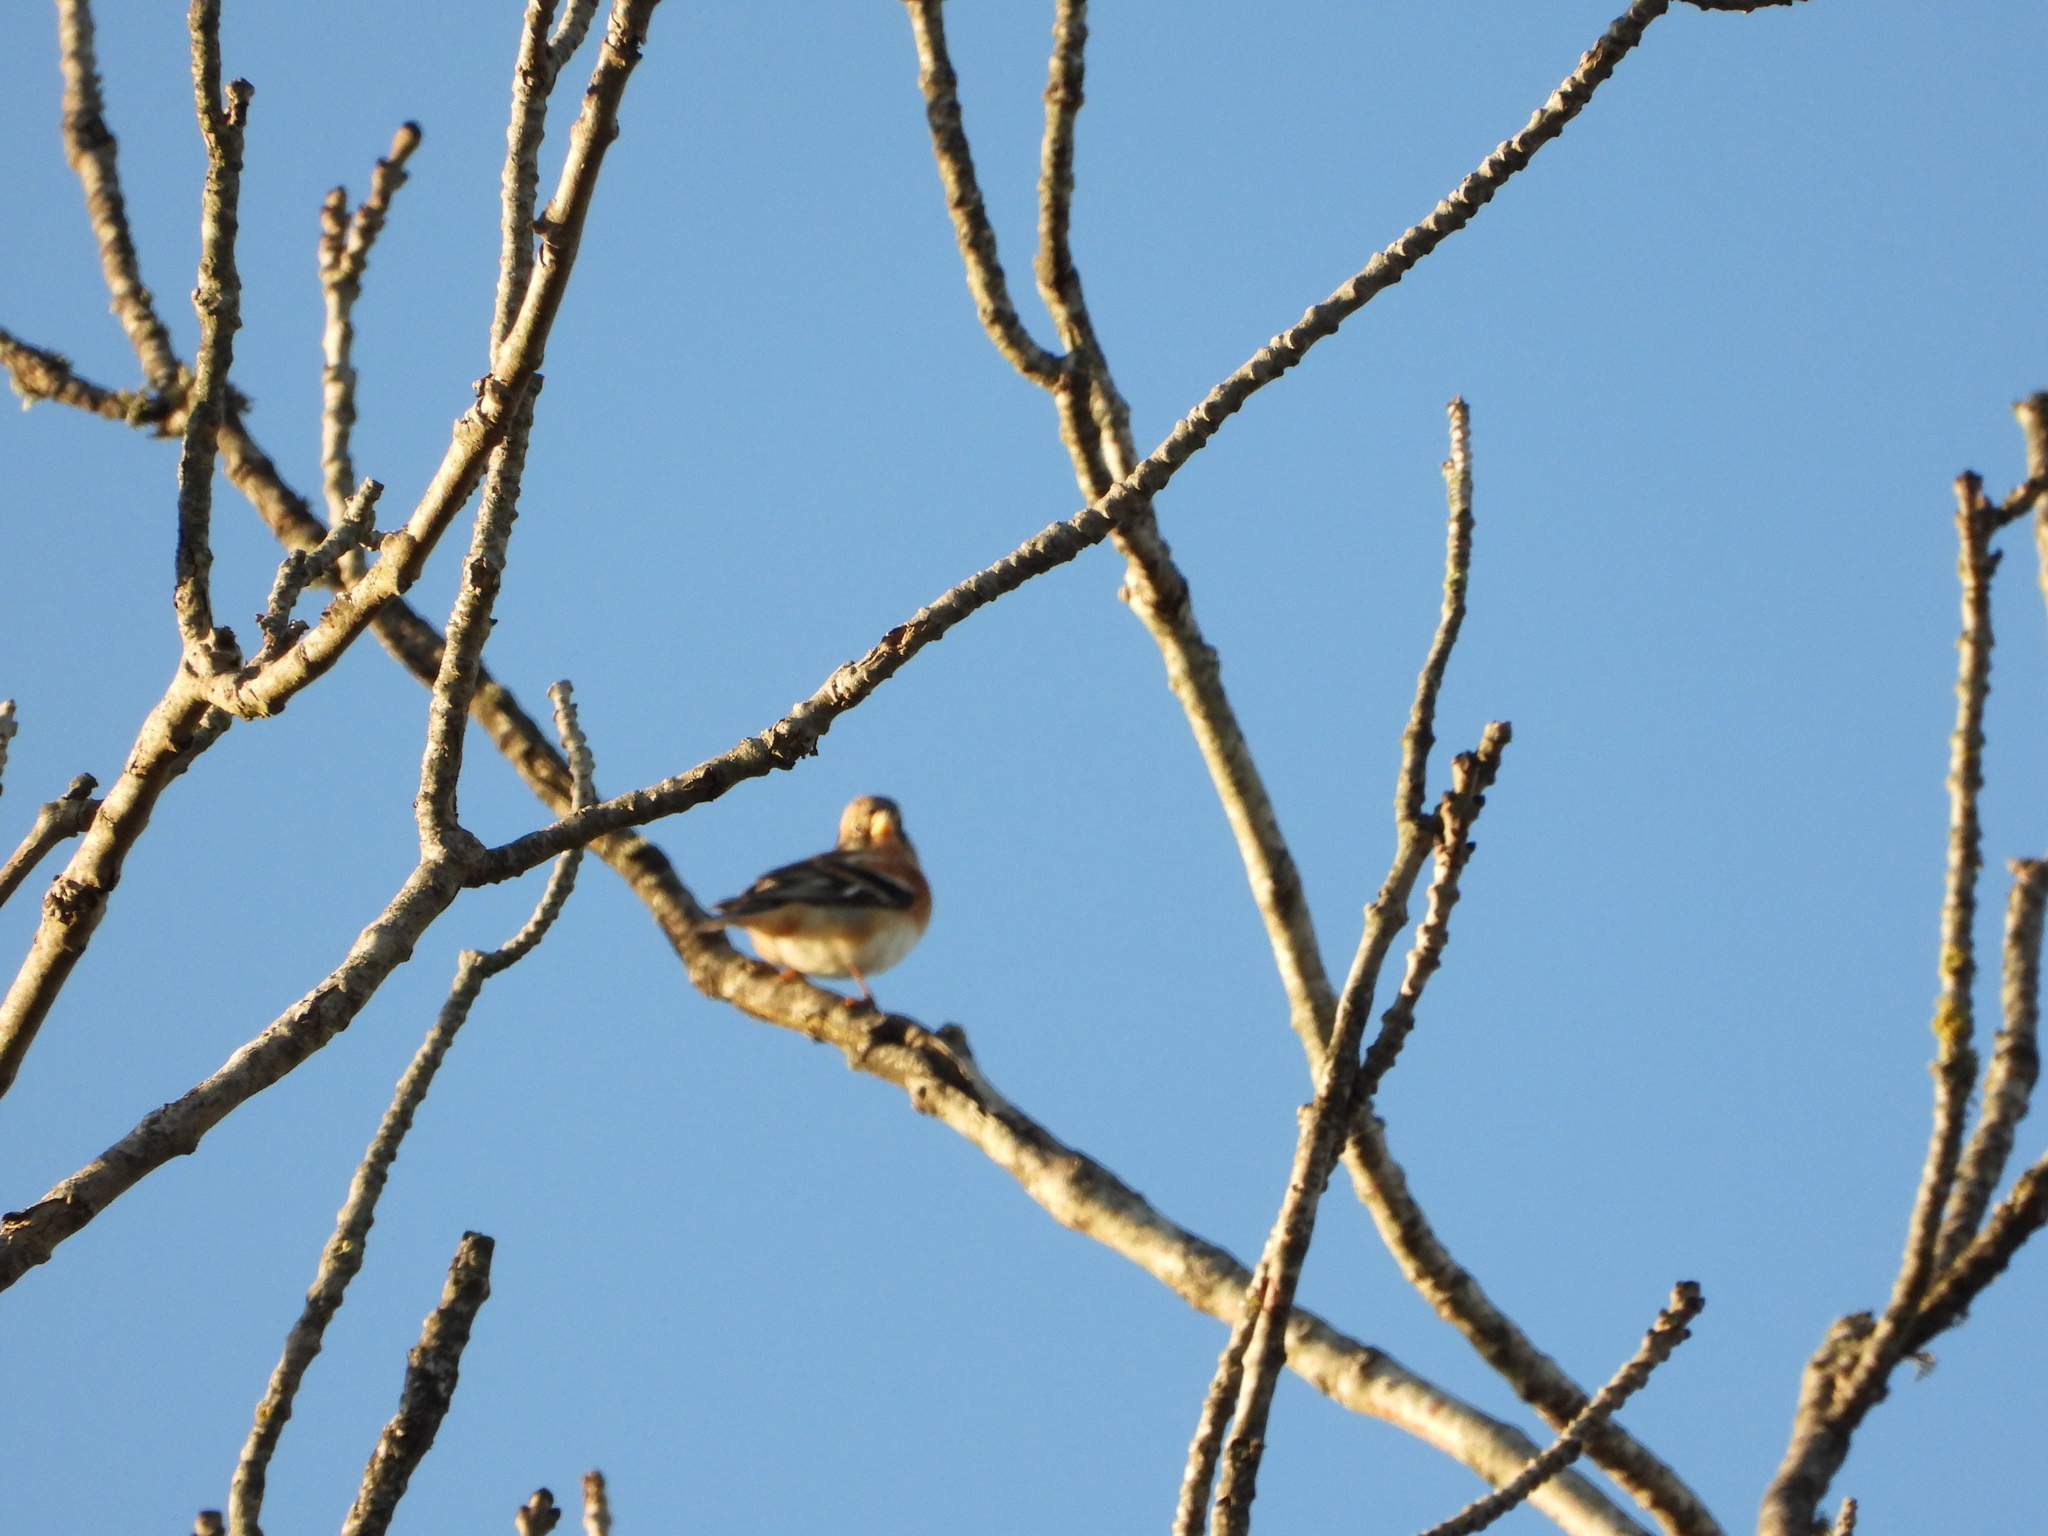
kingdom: Animalia
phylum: Chordata
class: Aves
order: Passeriformes
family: Fringillidae
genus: Fringilla
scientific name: Fringilla montifringilla
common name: Brambling
